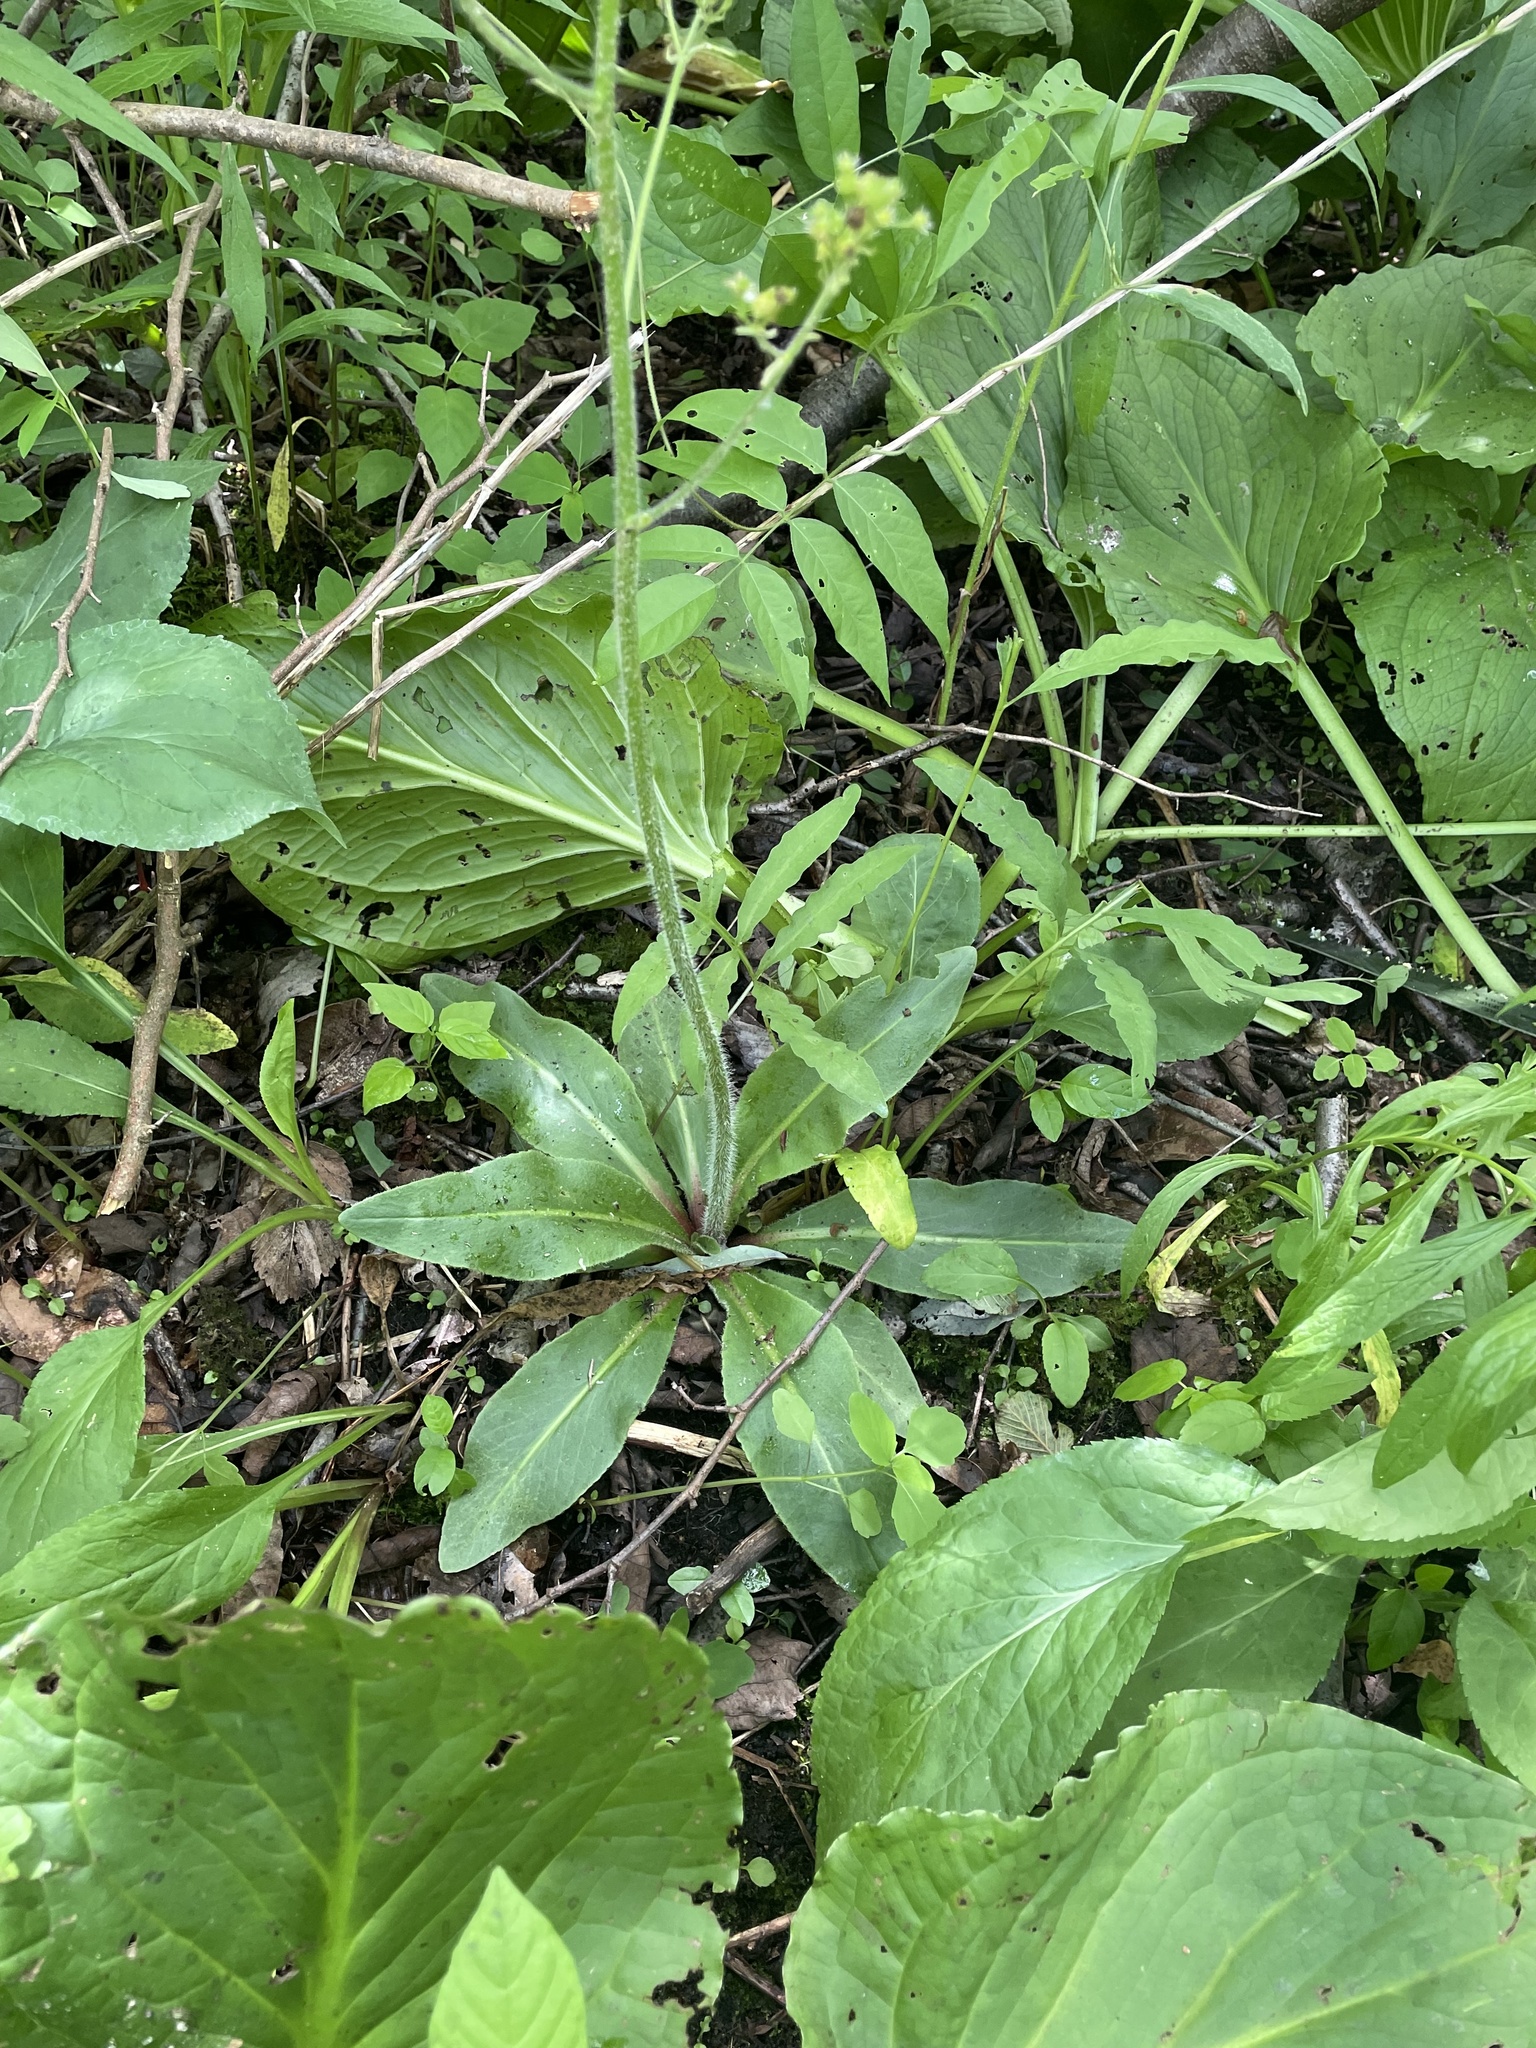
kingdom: Plantae
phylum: Tracheophyta
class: Magnoliopsida
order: Saxifragales
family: Saxifragaceae
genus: Micranthes
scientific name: Micranthes pensylvanica
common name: Marsh saxifrage
